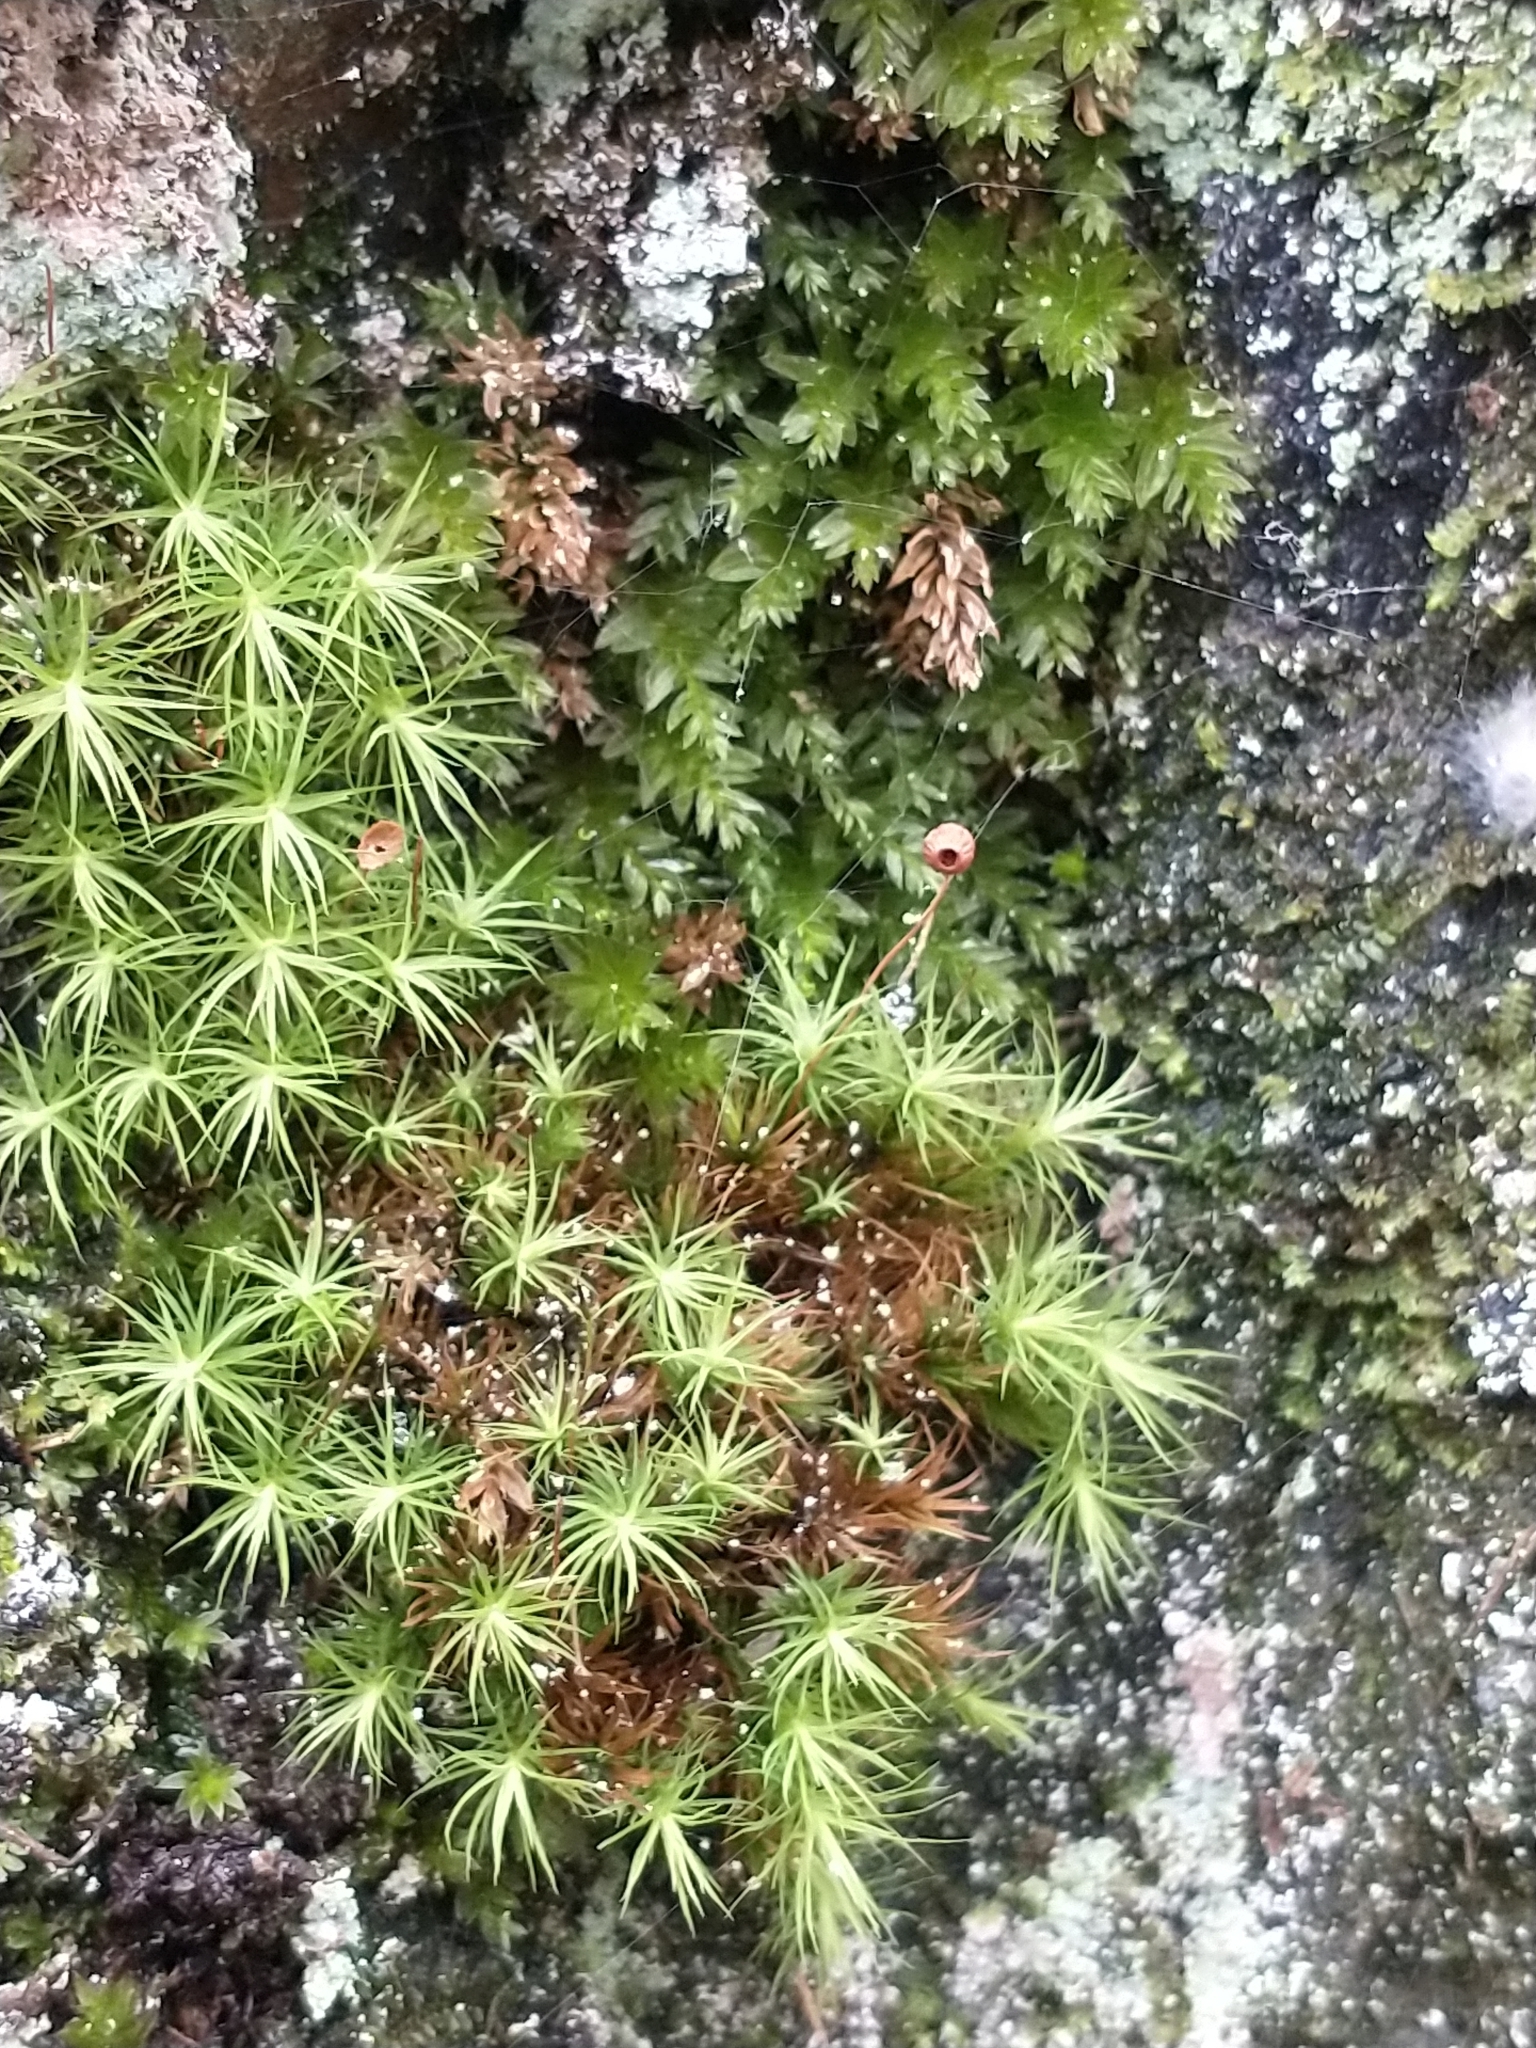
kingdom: Plantae
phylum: Bryophyta
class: Bryopsida
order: Bartramiales
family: Bartramiaceae
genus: Bartramia
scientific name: Bartramia ithyphylla
